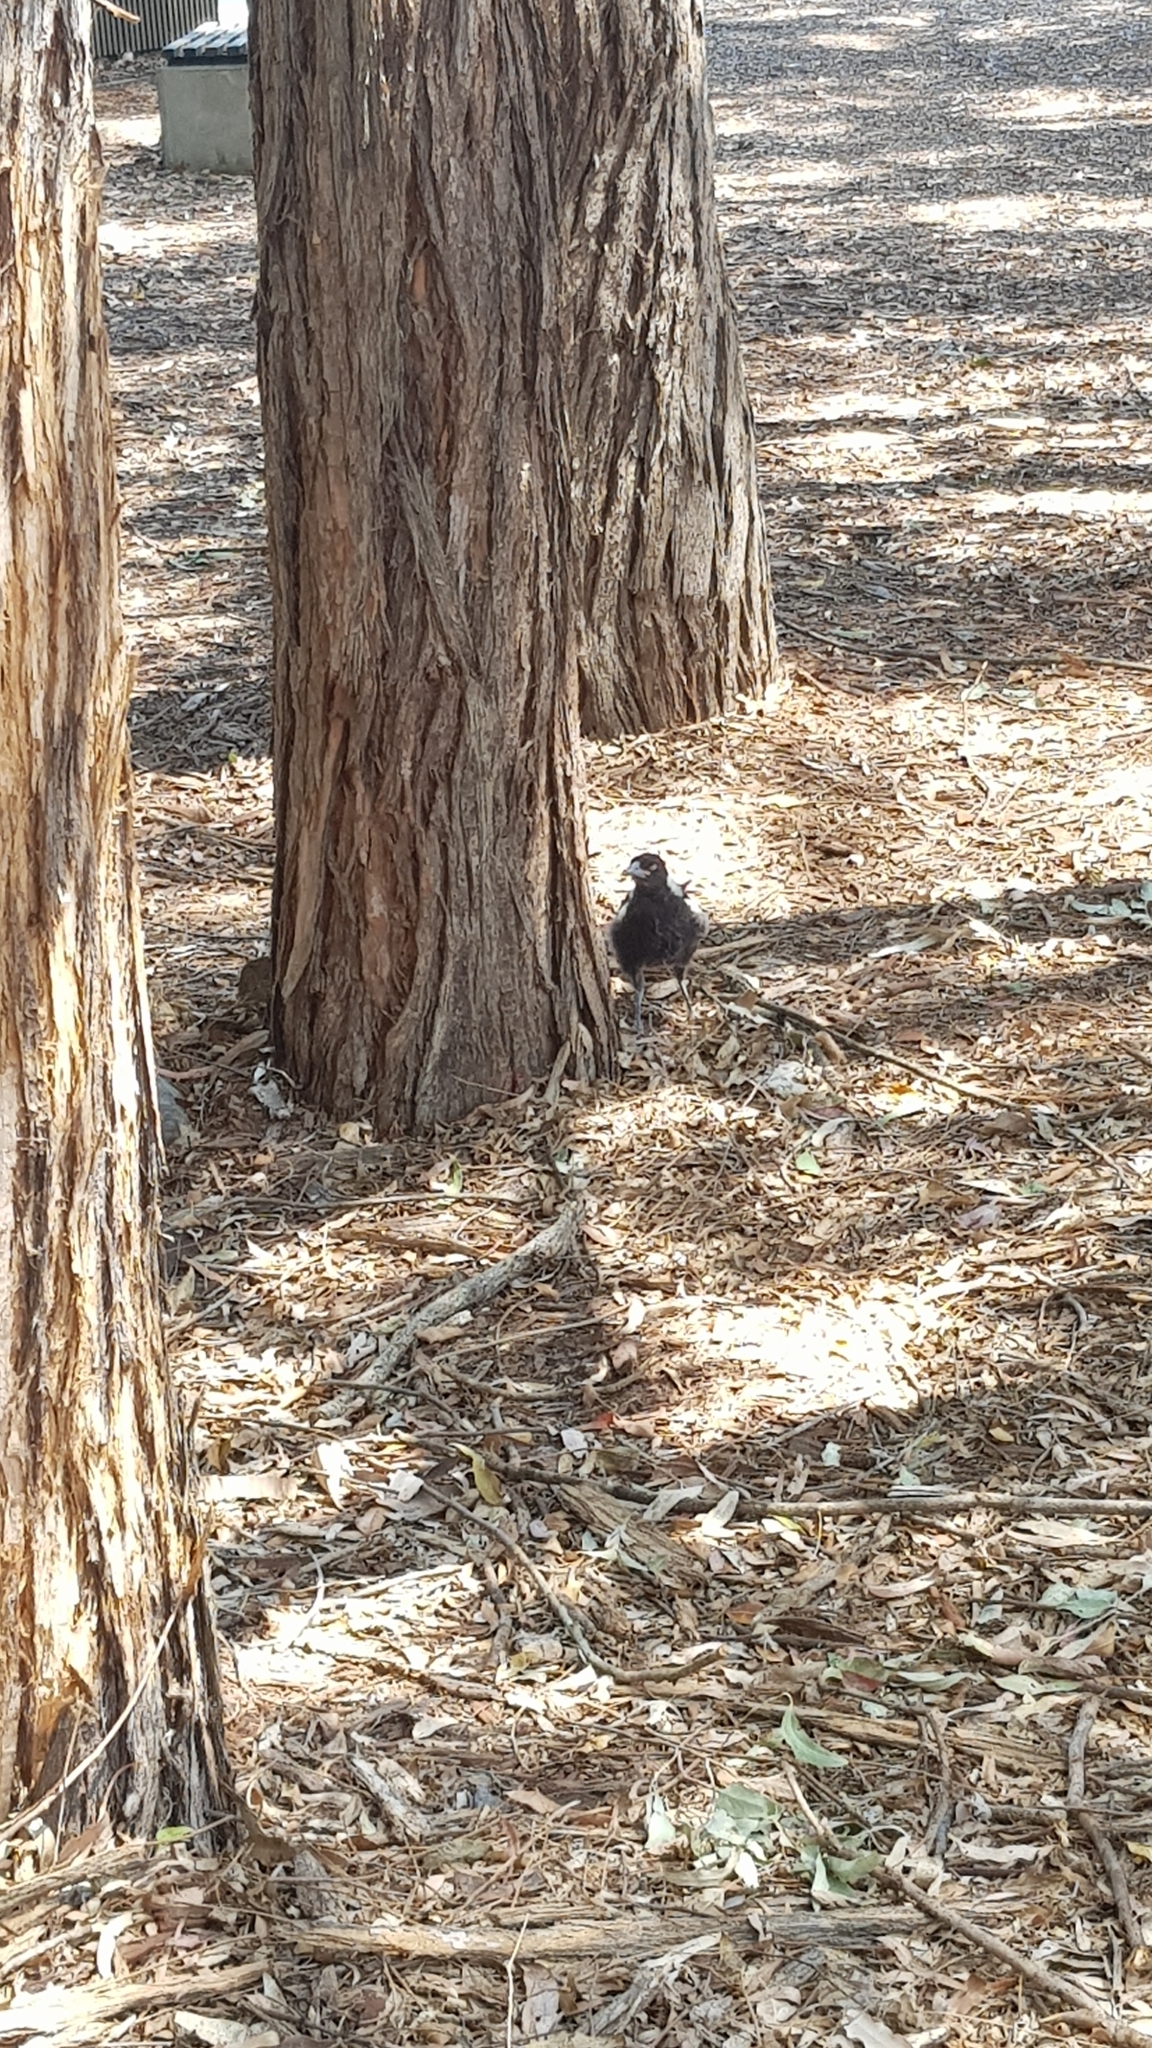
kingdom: Animalia
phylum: Chordata
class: Aves
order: Passeriformes
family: Cracticidae
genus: Gymnorhina
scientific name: Gymnorhina tibicen
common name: Australian magpie
